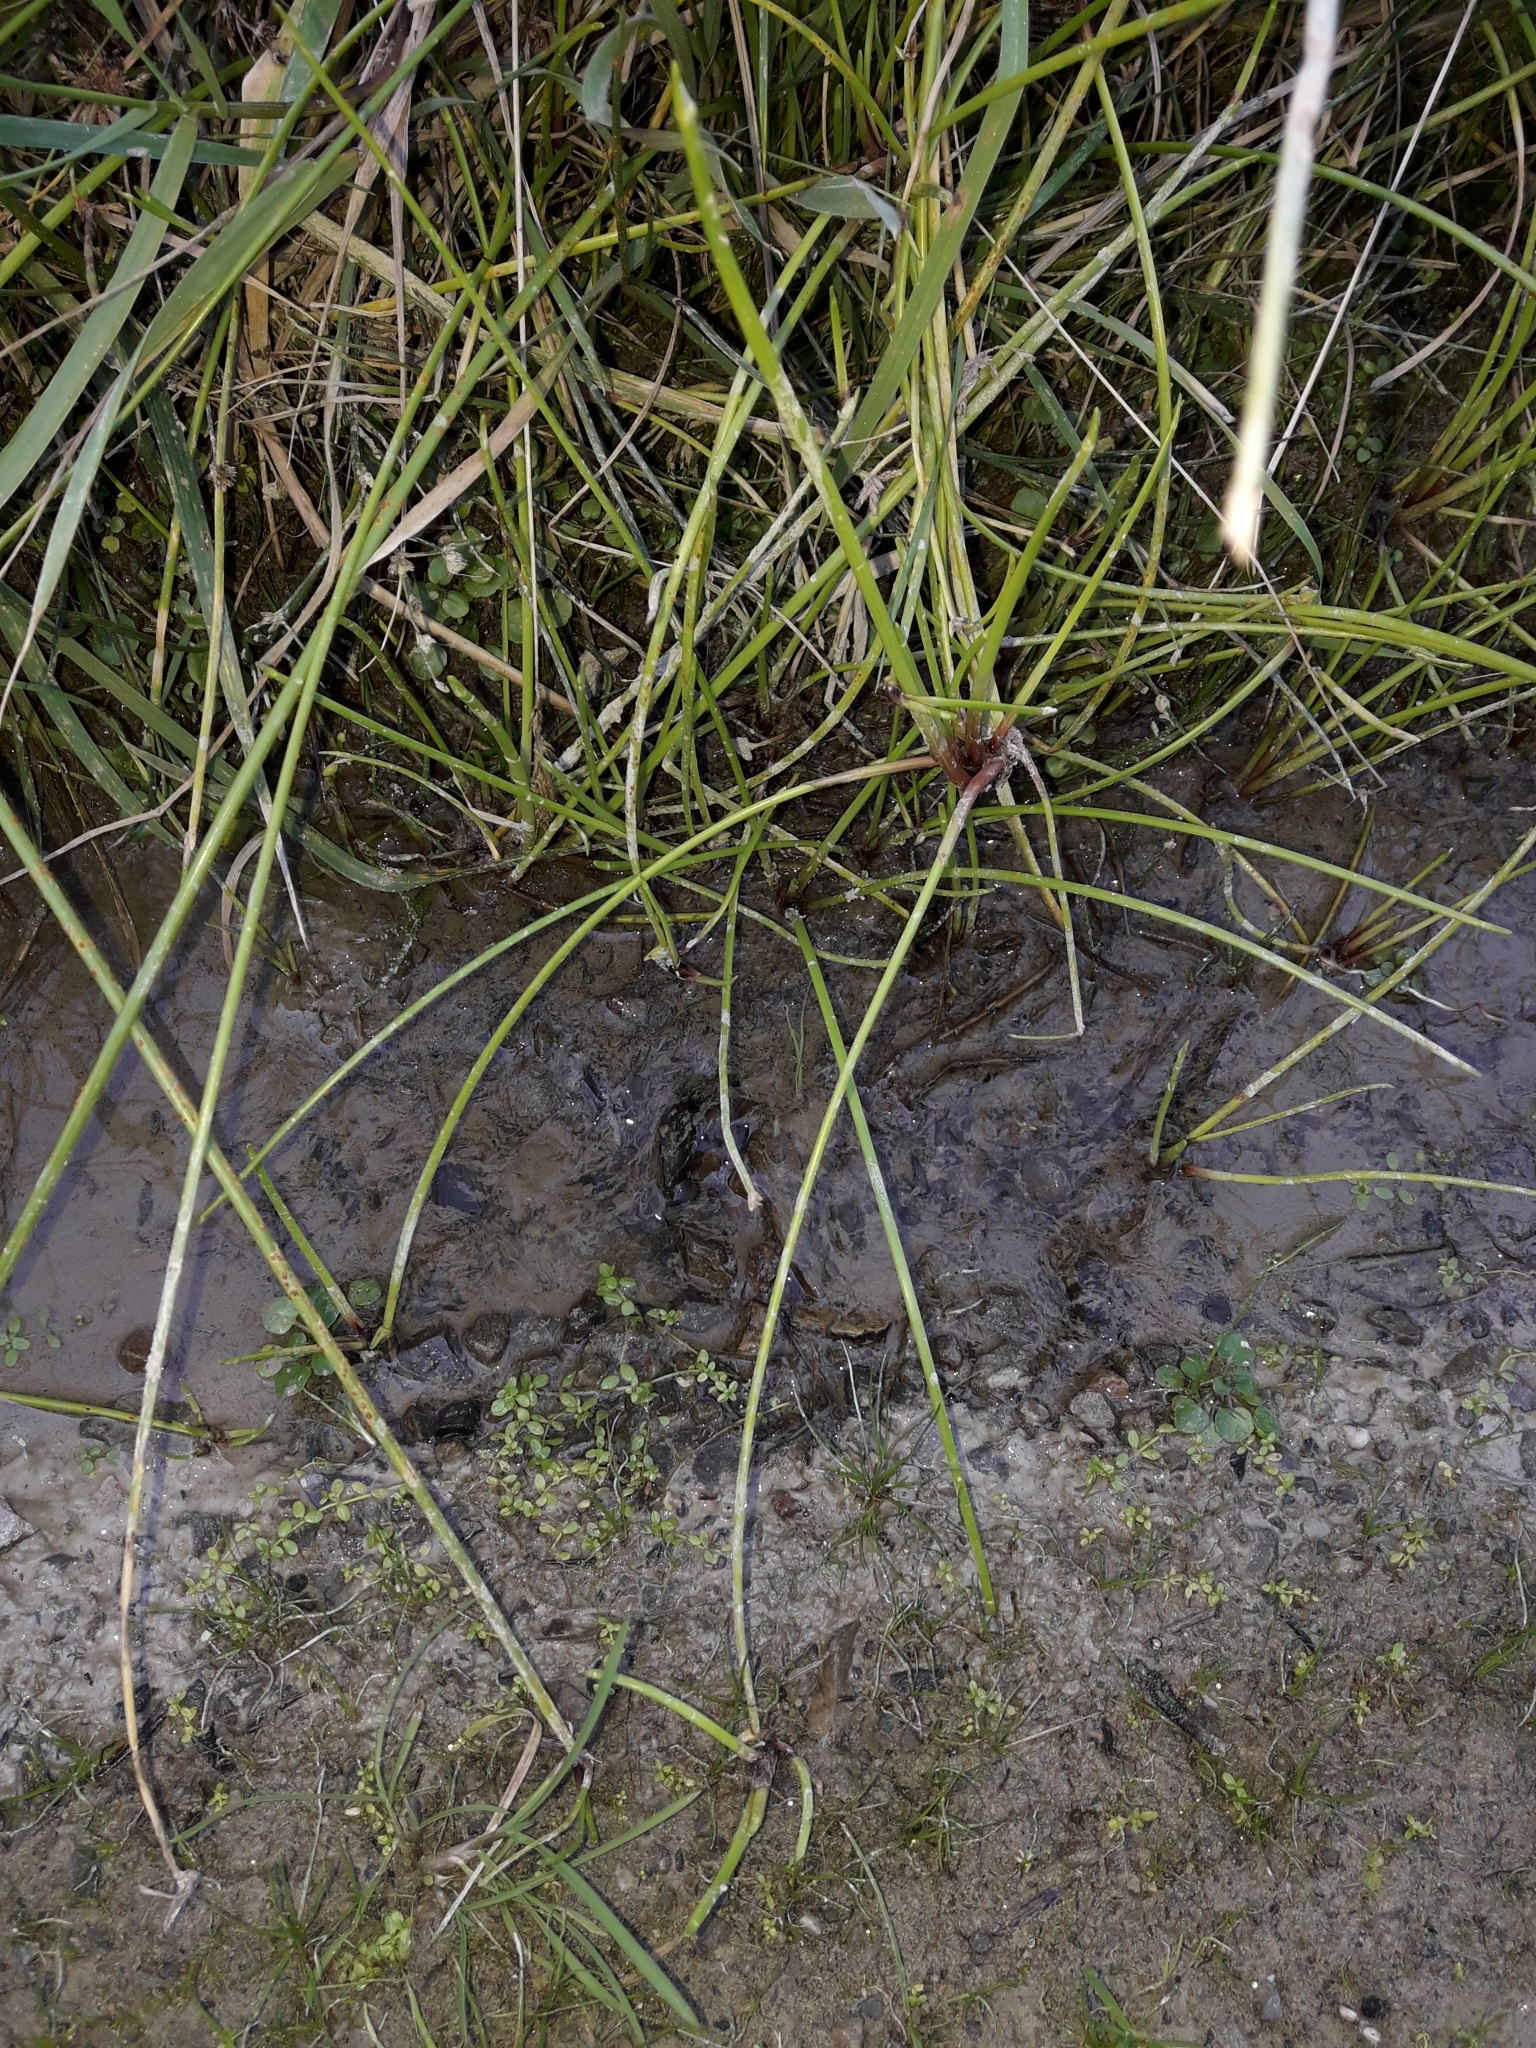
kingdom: Plantae
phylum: Tracheophyta
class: Liliopsida
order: Poales
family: Cyperaceae
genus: Isolepis
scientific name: Isolepis prolifera
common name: Proliferating bulrush
